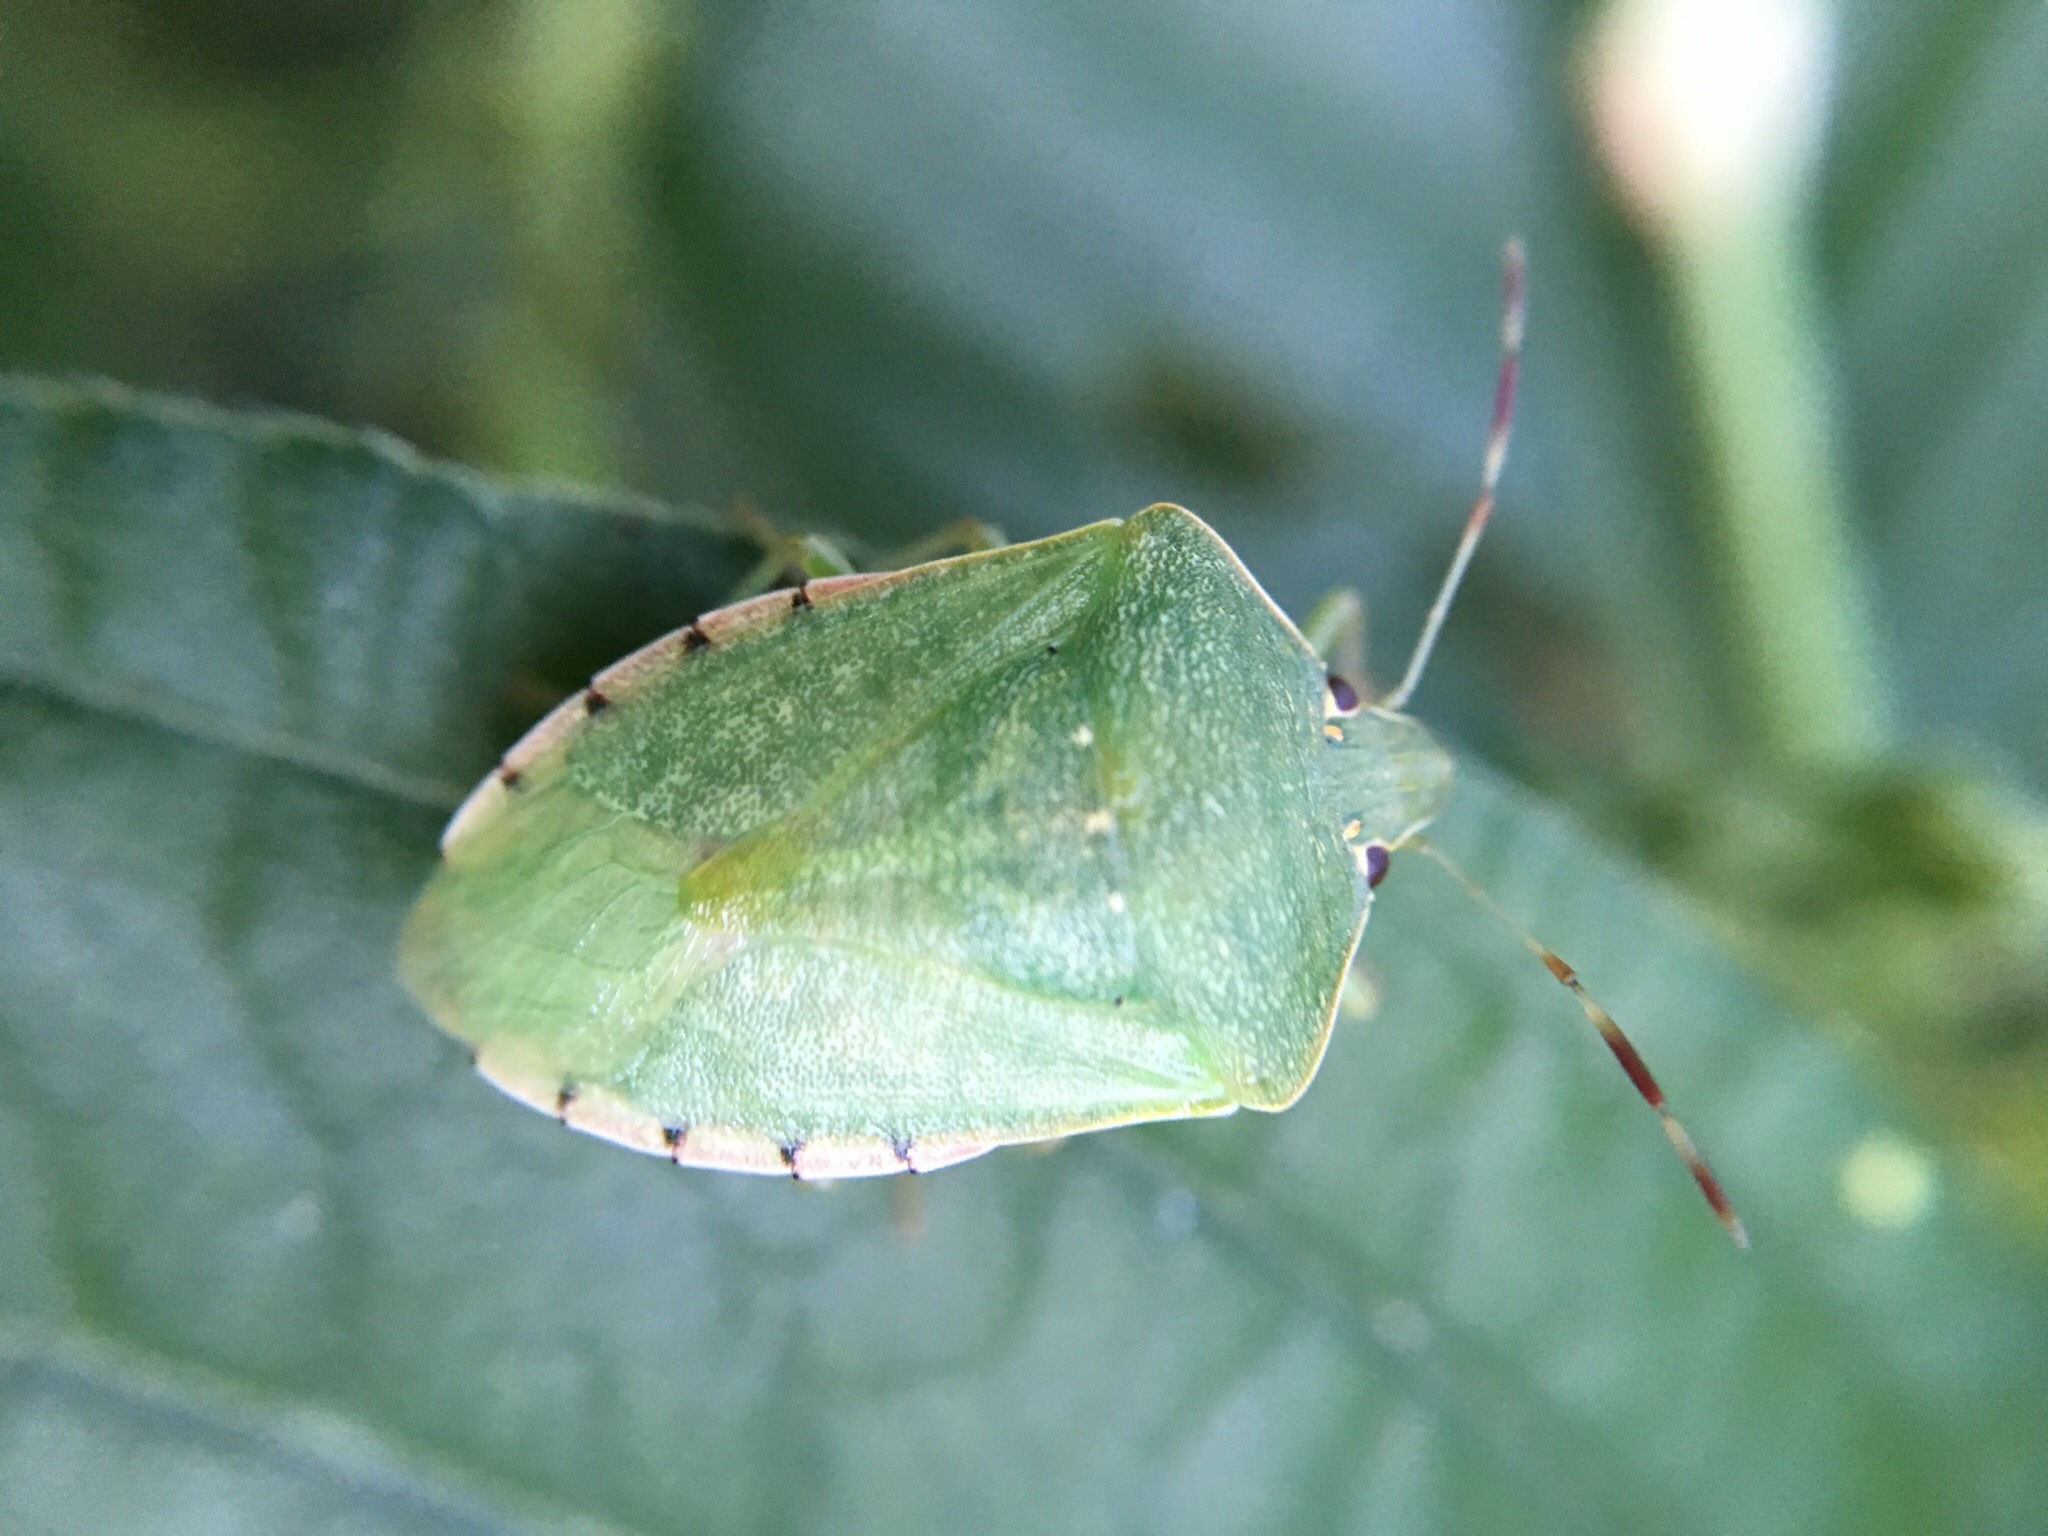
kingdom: Animalia
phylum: Arthropoda
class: Insecta
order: Hemiptera
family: Pentatomidae
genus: Nezara
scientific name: Nezara viridula
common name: Southern green stink bug
